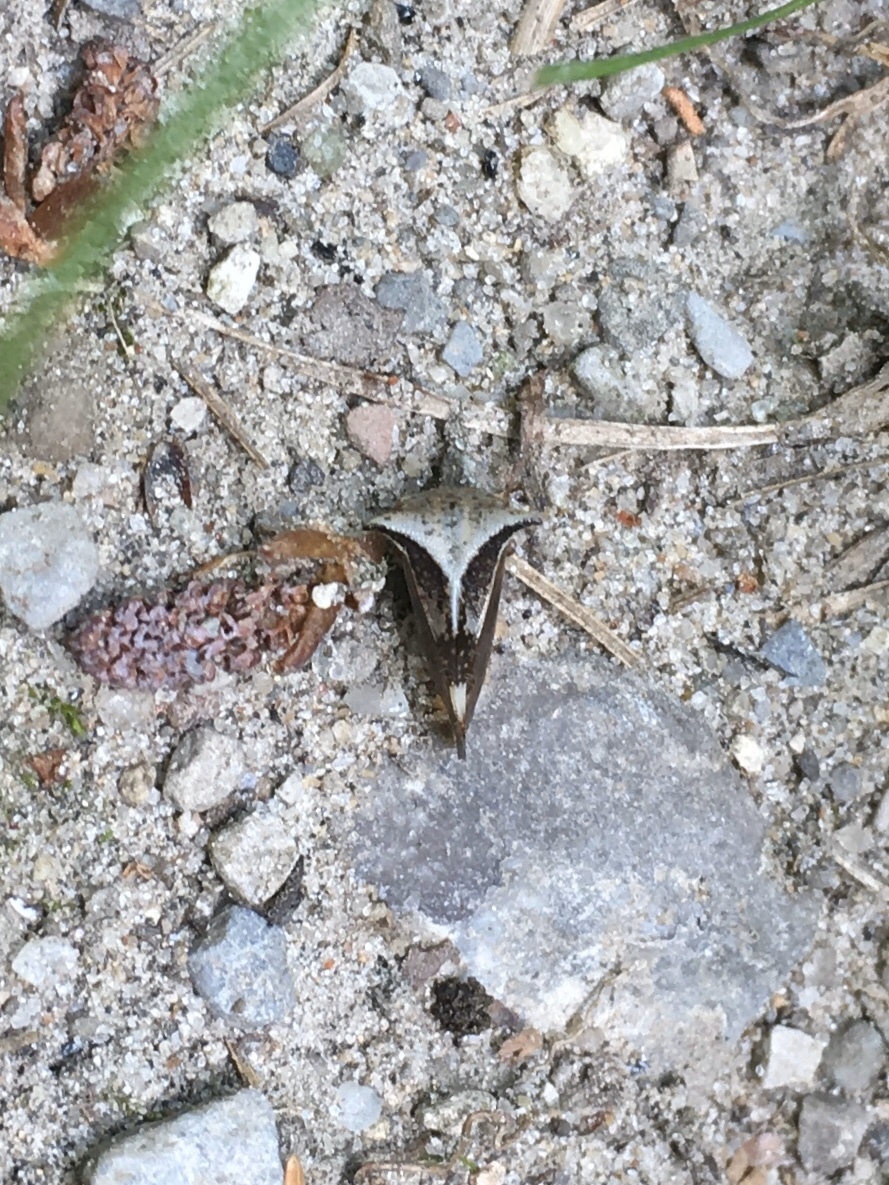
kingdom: Animalia
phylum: Arthropoda
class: Insecta
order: Hemiptera
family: Membracidae
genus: Stictocephala
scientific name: Stictocephala diceros
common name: Two-horned treehopper
